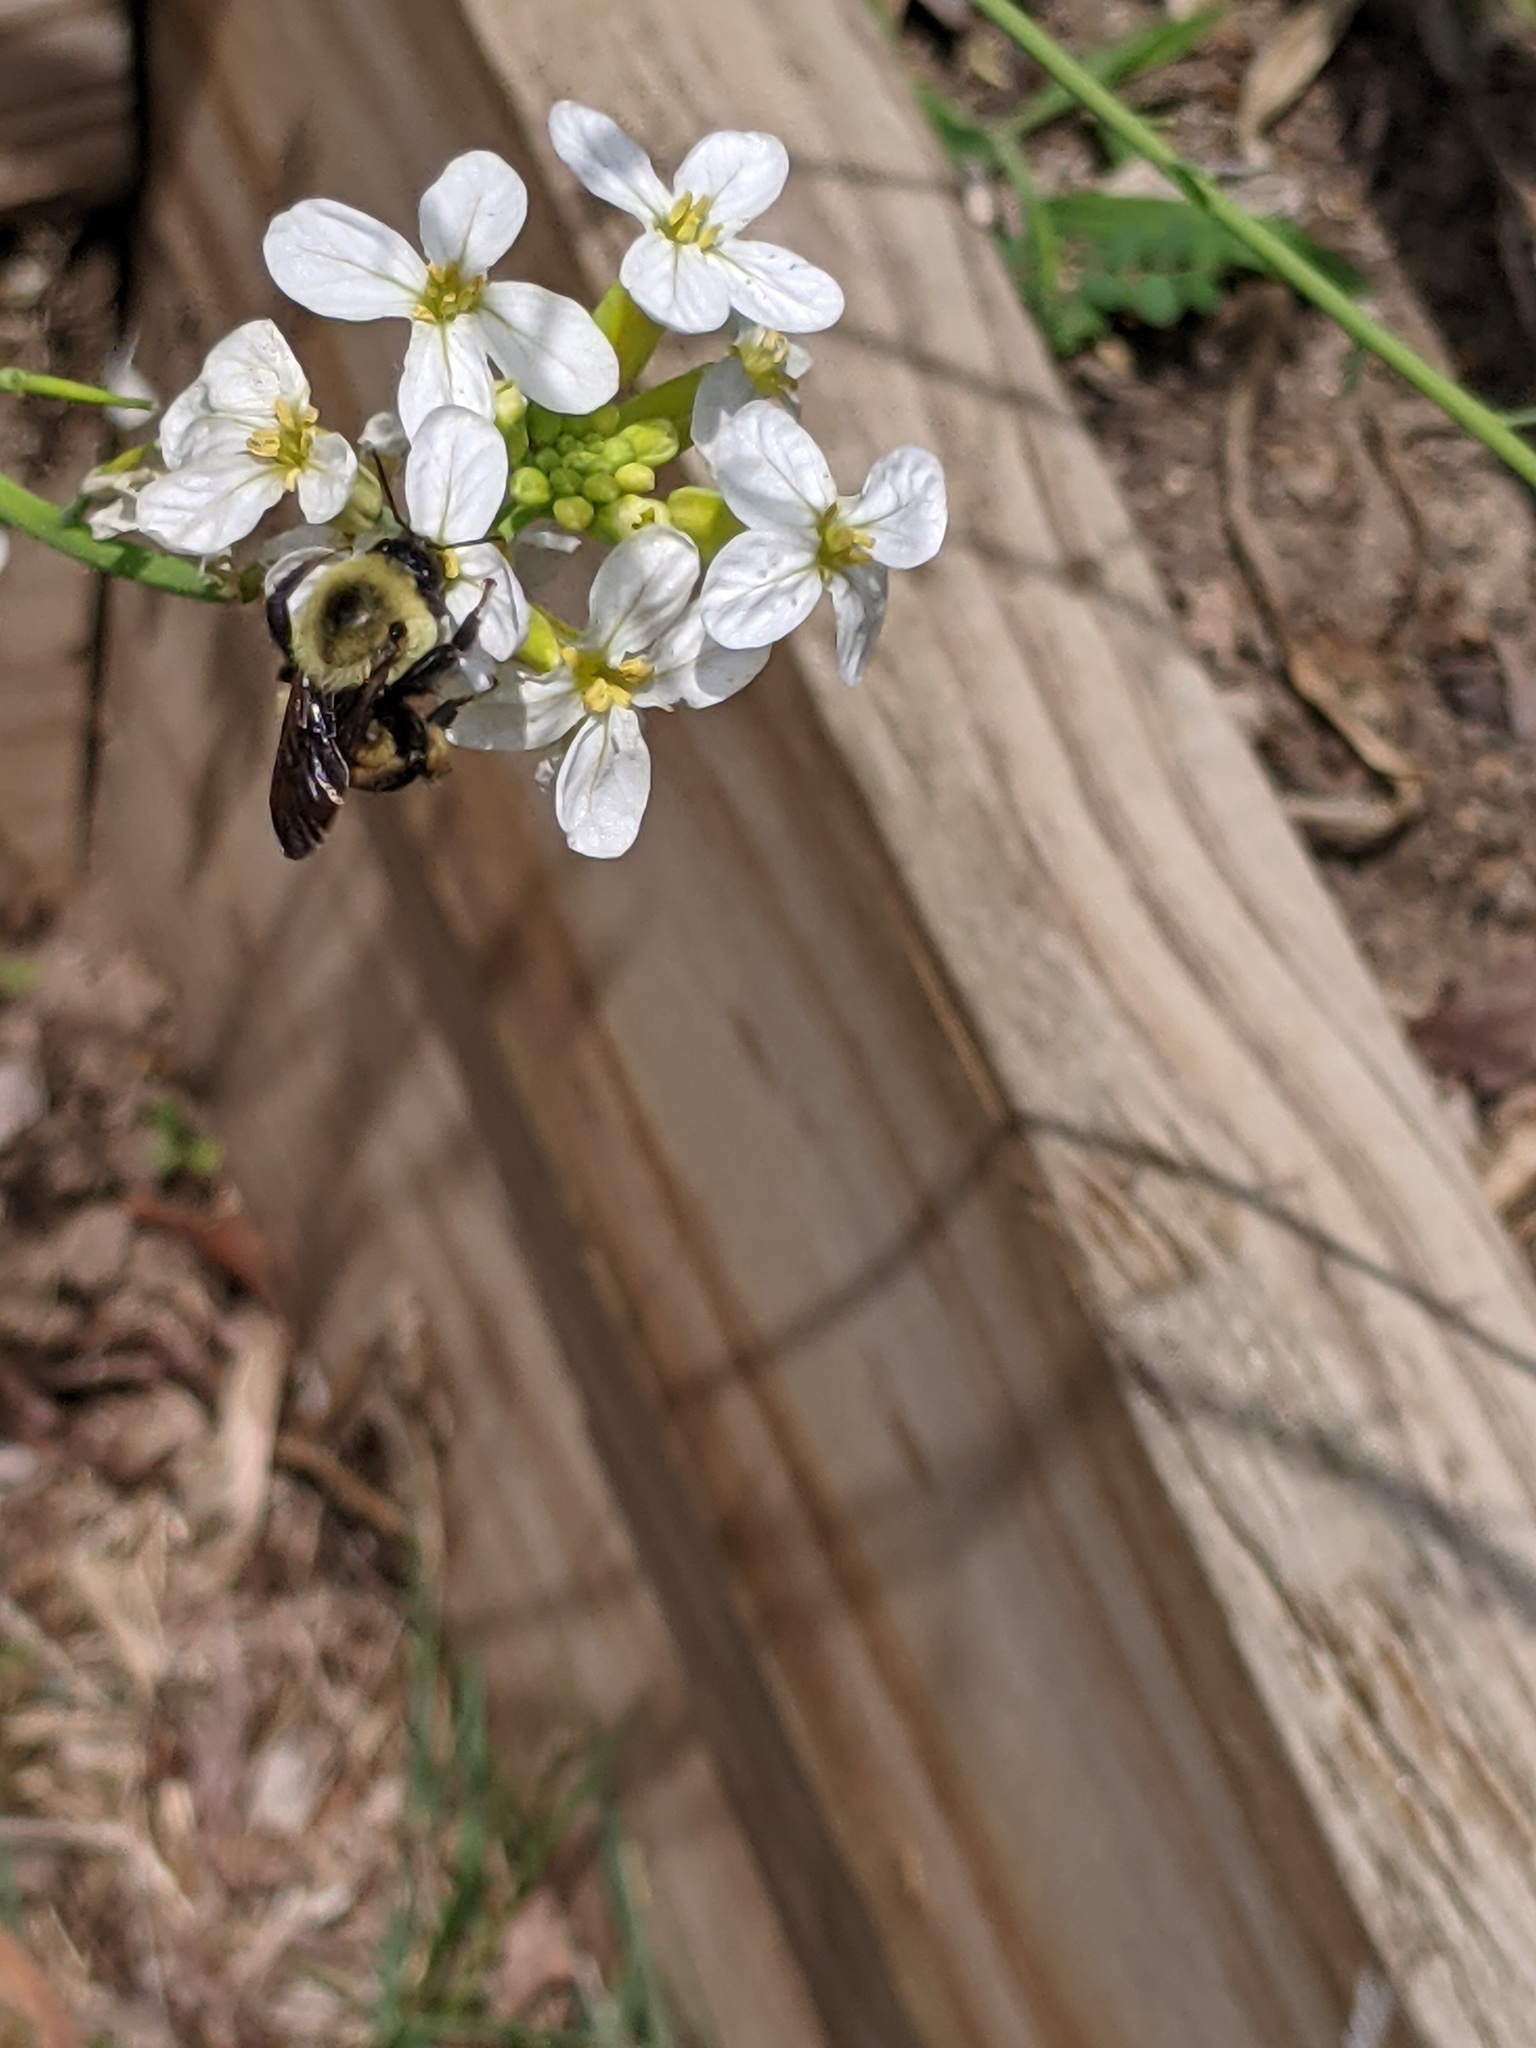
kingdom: Animalia
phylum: Arthropoda
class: Insecta
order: Hymenoptera
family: Apidae
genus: Bombus
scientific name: Bombus griseocollis
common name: Brown-belted bumble bee
